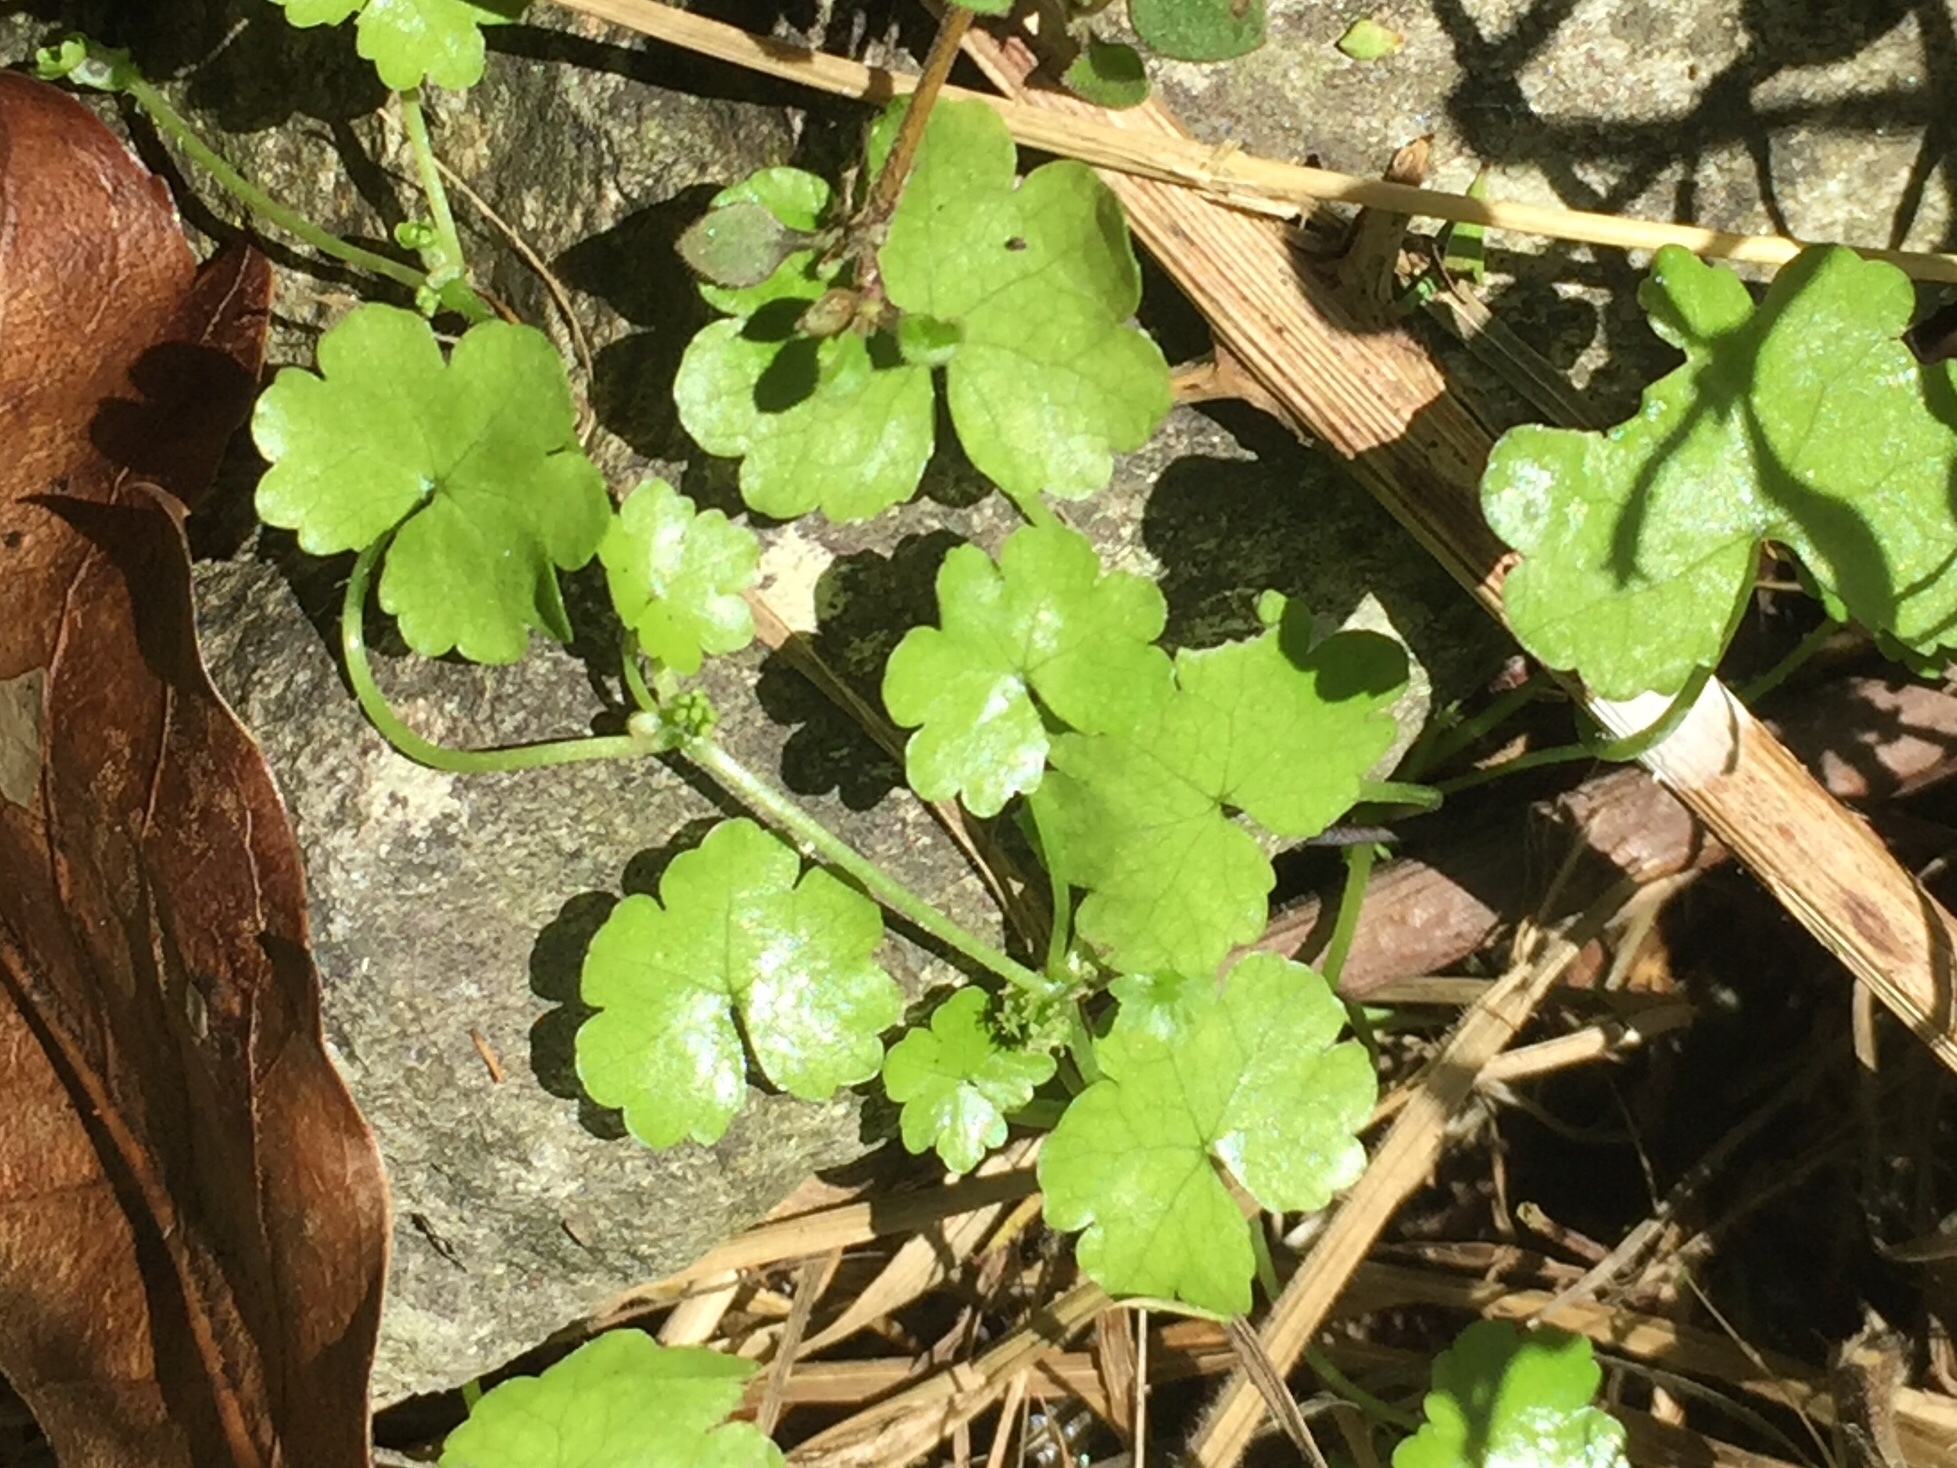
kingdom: Plantae
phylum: Tracheophyta
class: Magnoliopsida
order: Apiales
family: Araliaceae
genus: Hydrocotyle
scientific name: Hydrocotyle heteromeria
